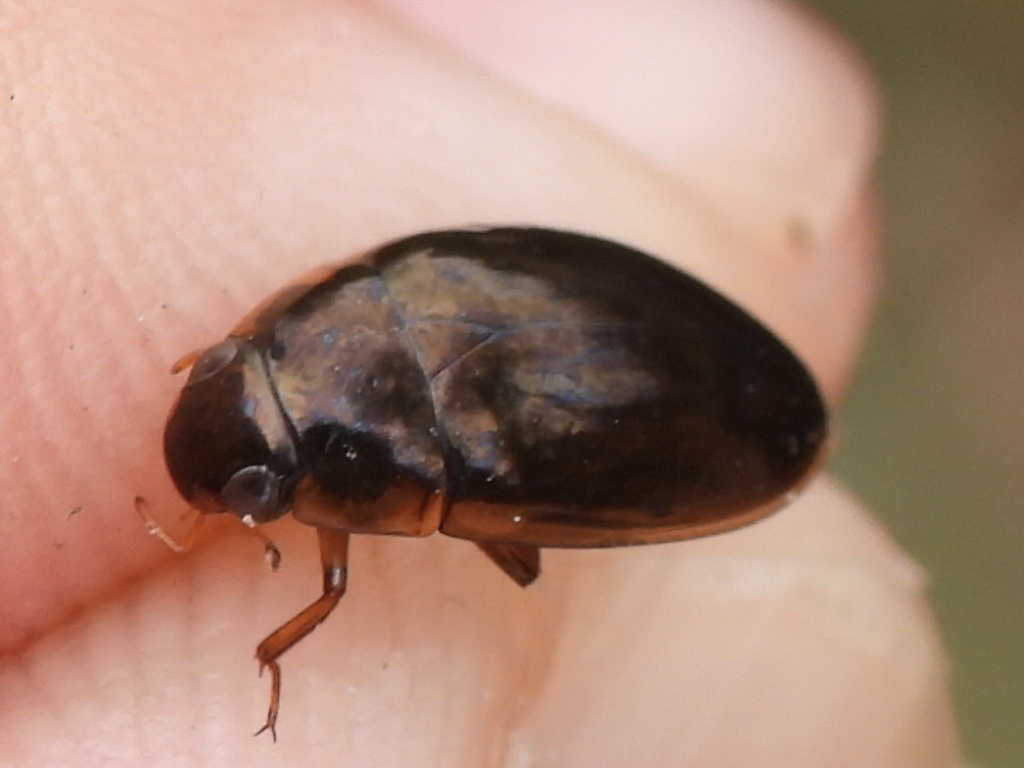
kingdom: Animalia
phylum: Arthropoda
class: Insecta
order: Coleoptera
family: Hydrophilidae
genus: Tropisternus
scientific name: Tropisternus lateralis
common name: Lateral-banded water scavenger beetle
